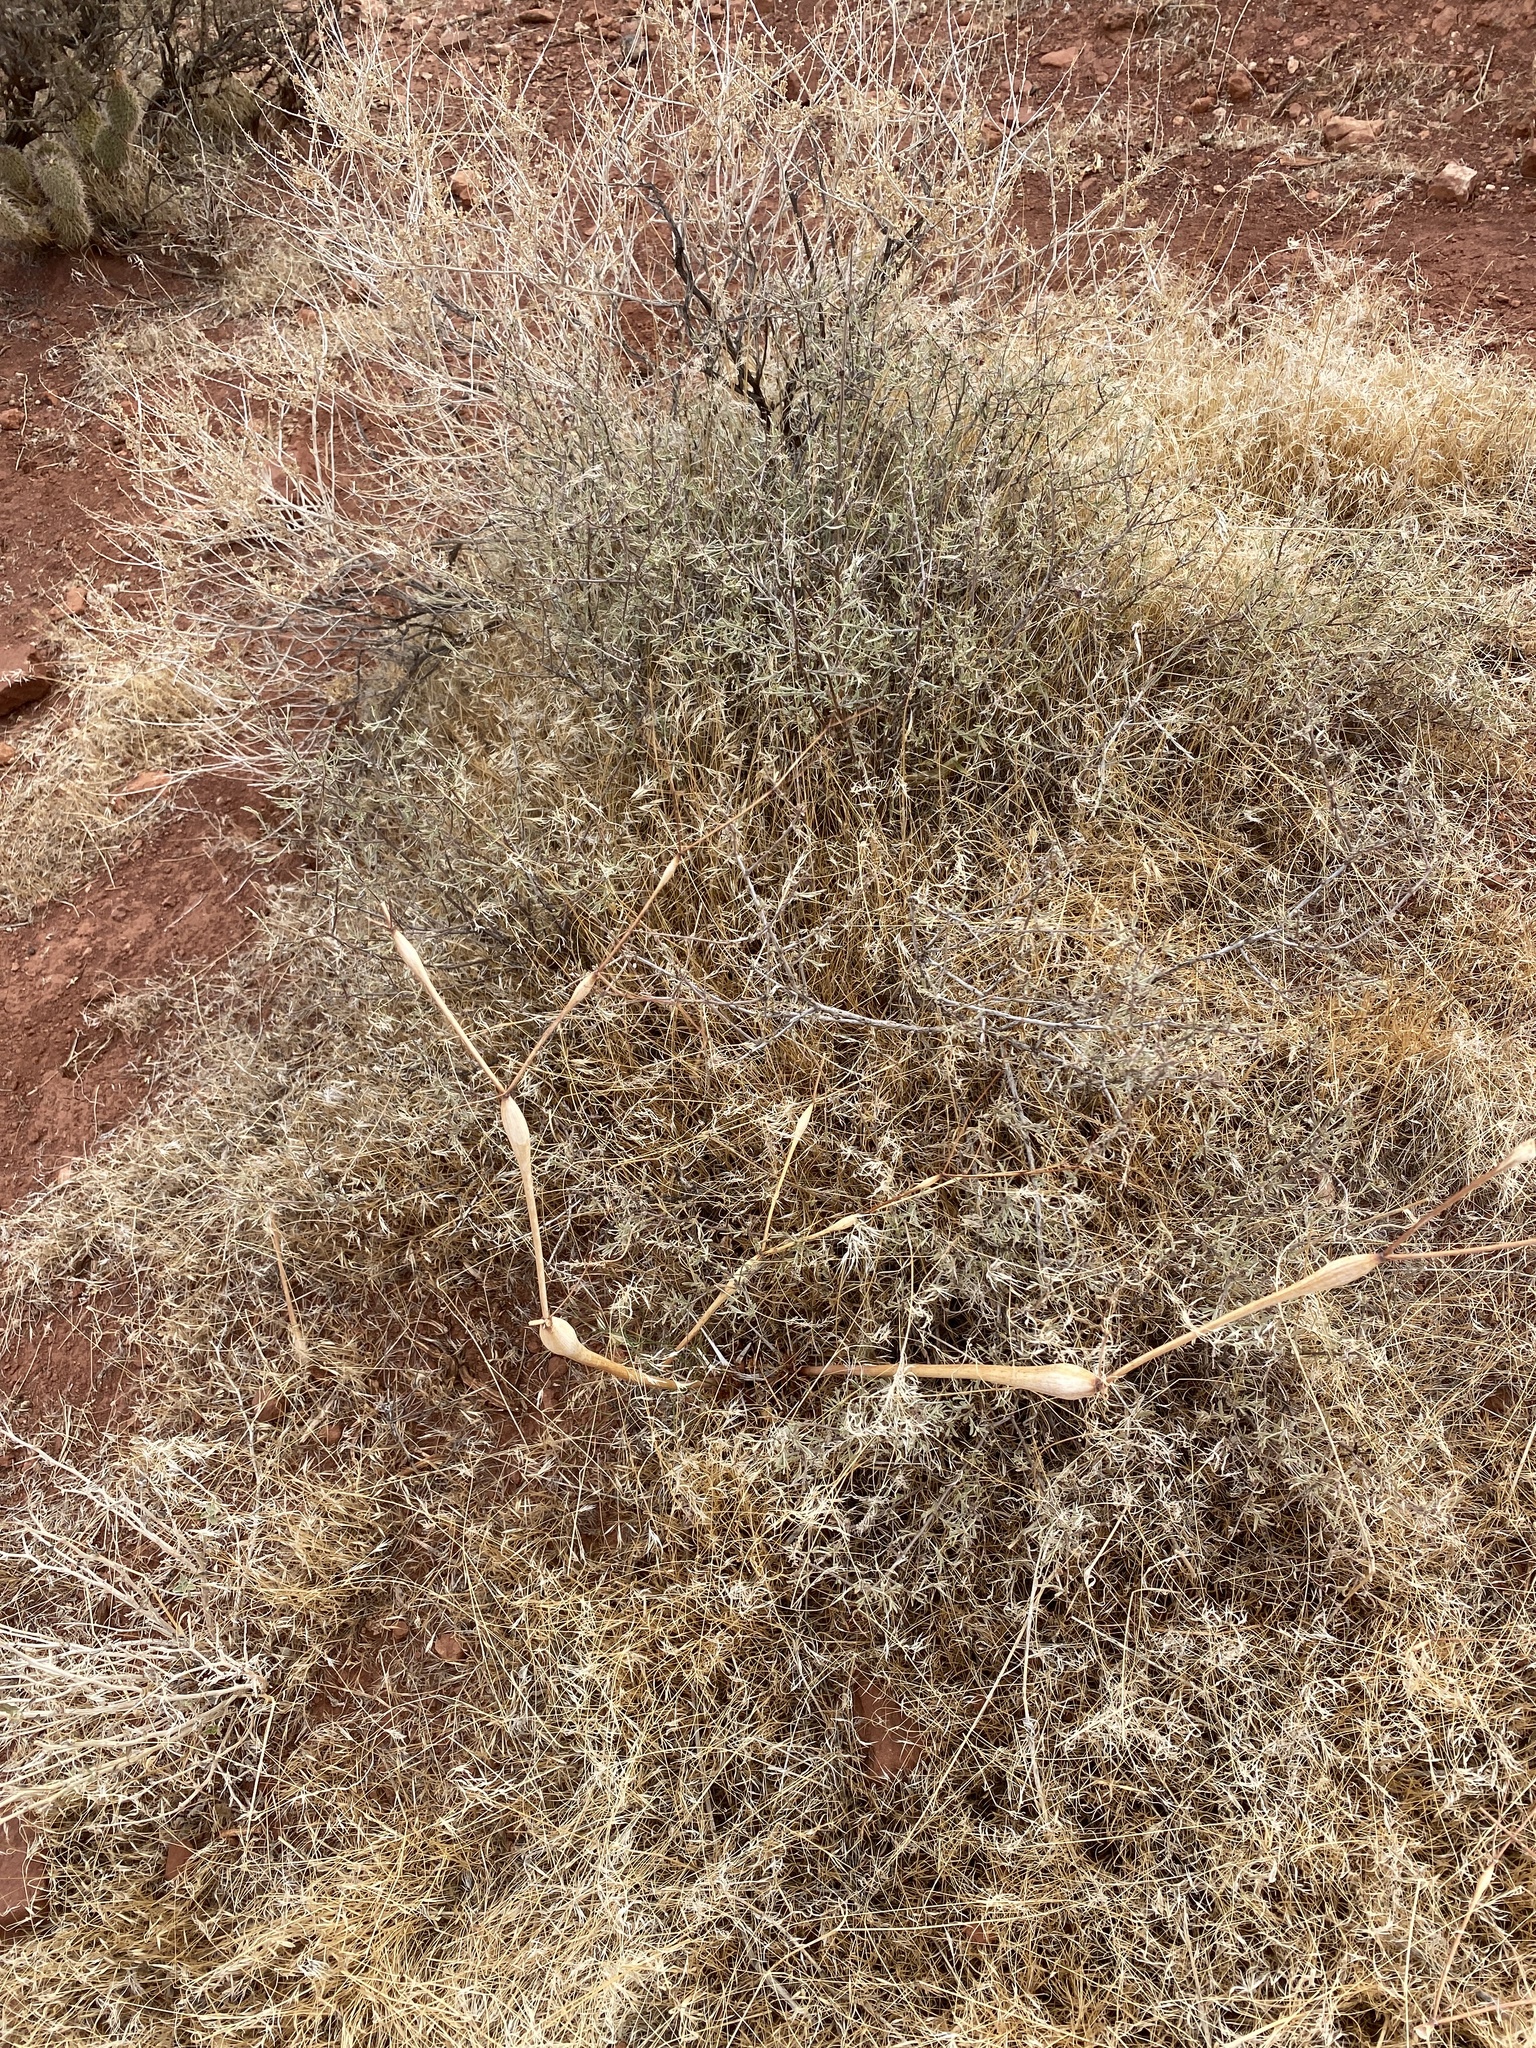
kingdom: Plantae
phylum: Tracheophyta
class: Magnoliopsida
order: Caryophyllales
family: Polygonaceae
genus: Eriogonum
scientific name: Eriogonum inflatum
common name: Desert trumpet
